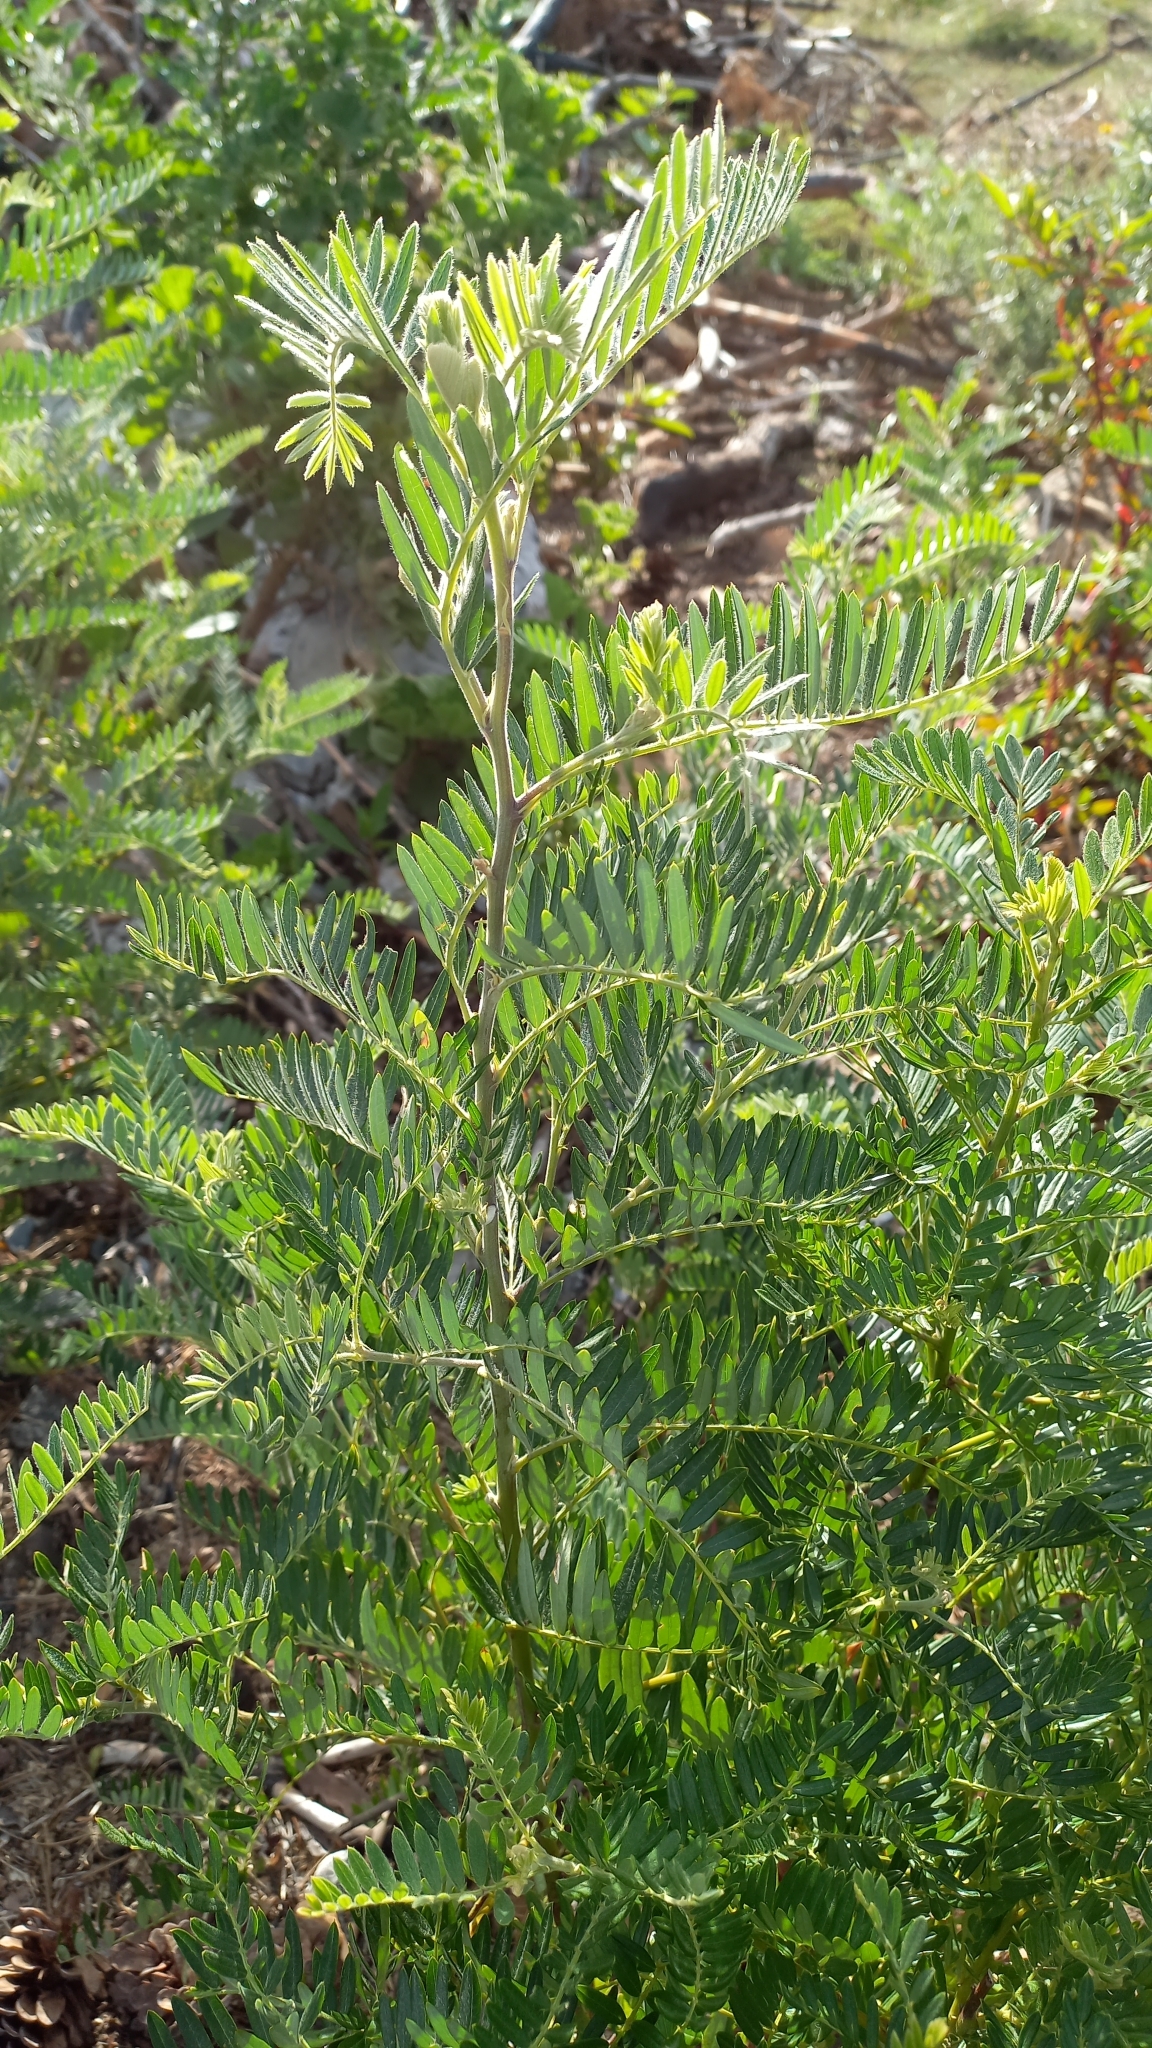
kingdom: Plantae
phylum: Tracheophyta
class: Magnoliopsida
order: Fabales
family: Fabaceae
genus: Virgilia
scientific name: Virgilia oroboides
